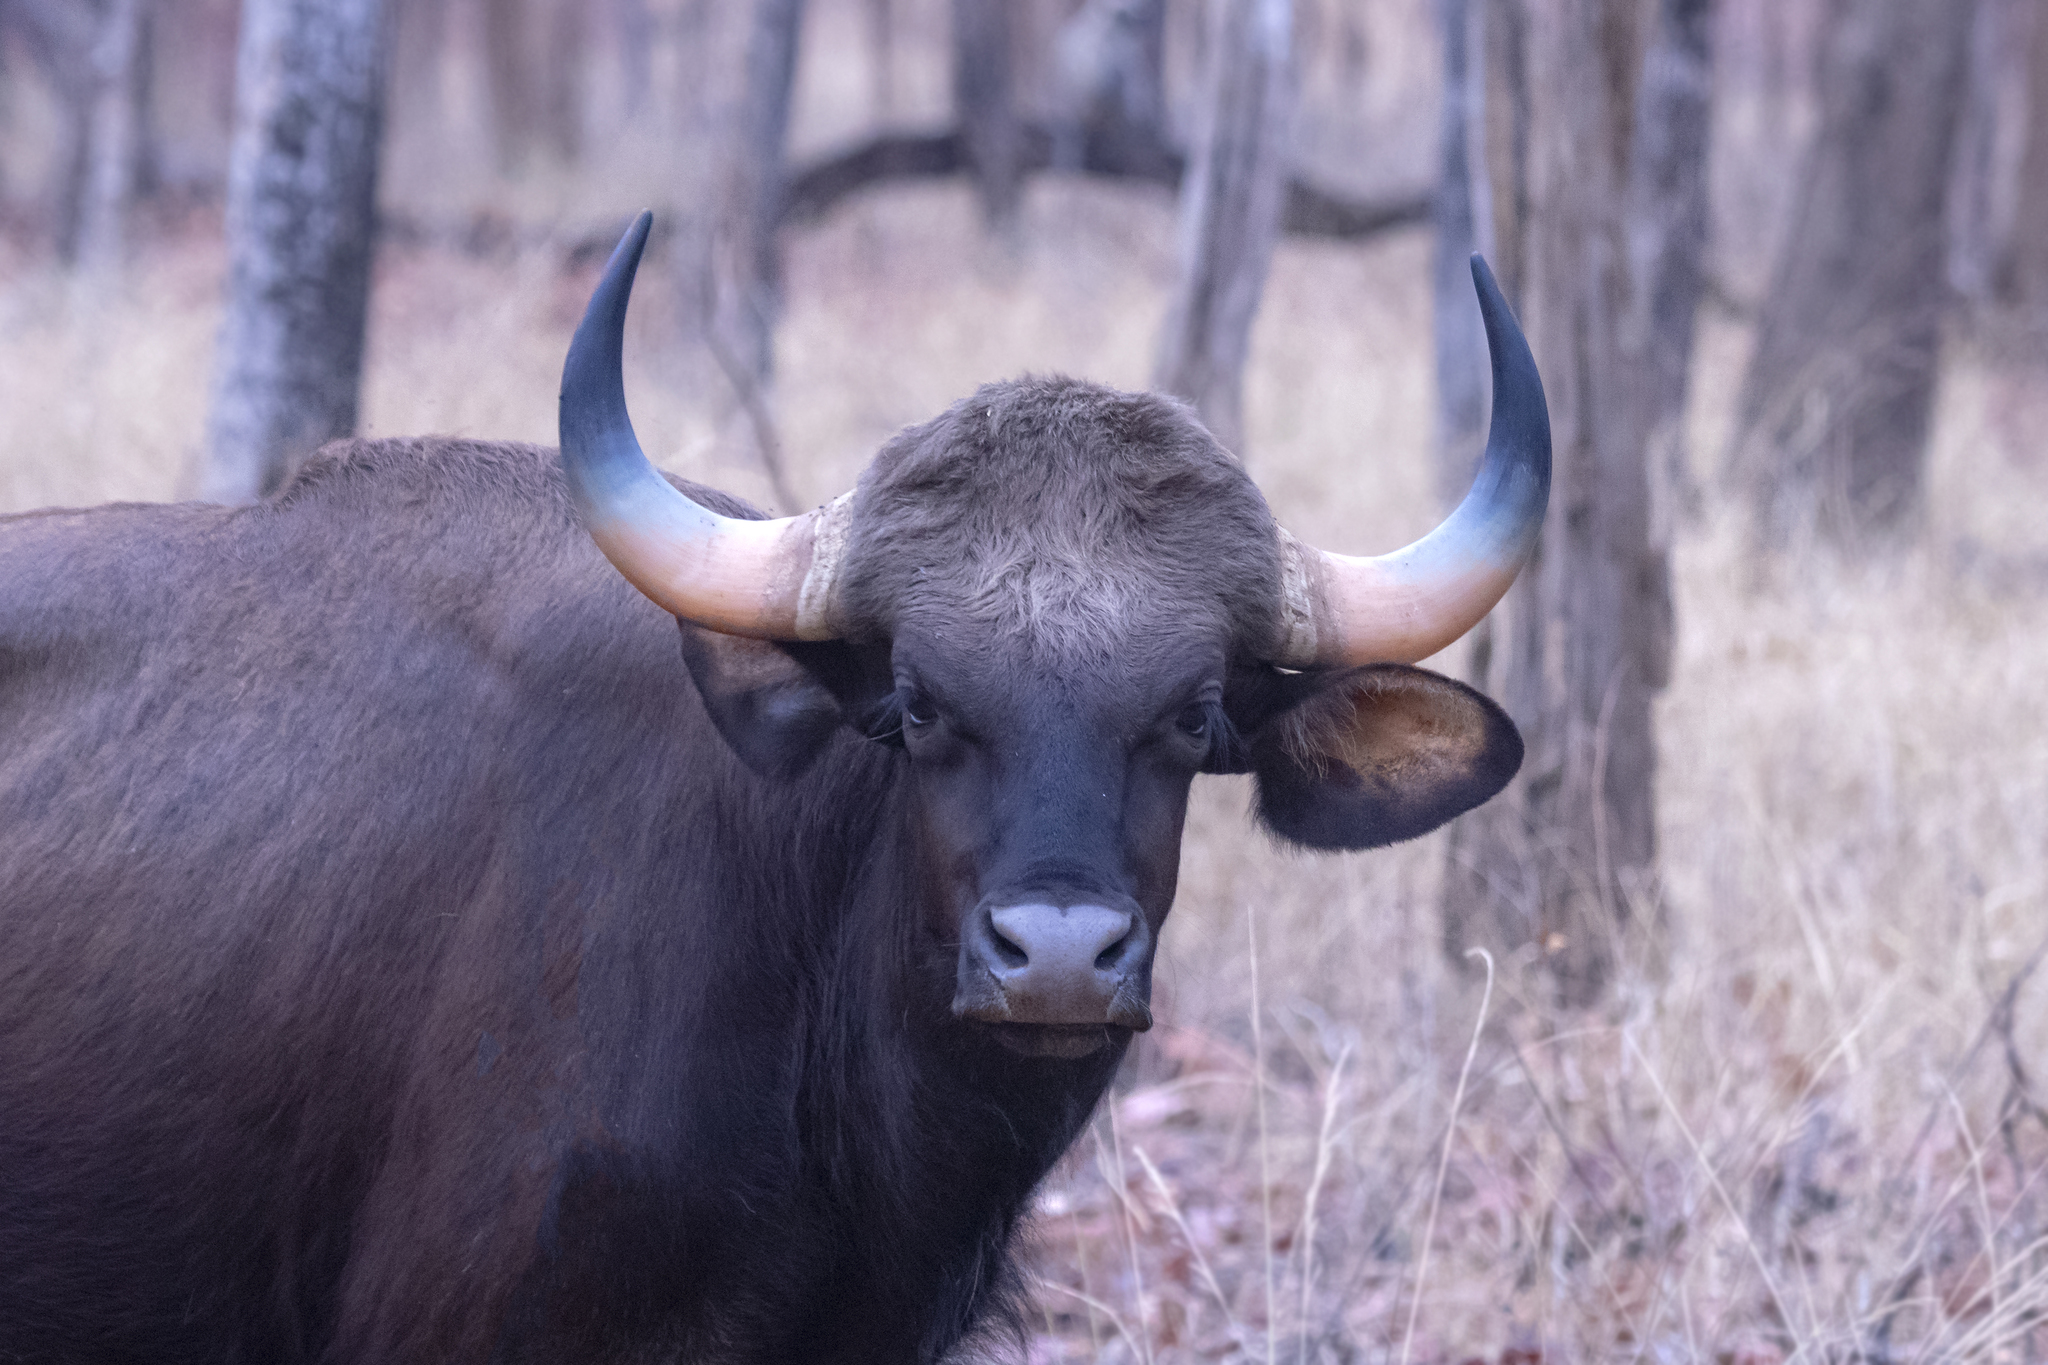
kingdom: Animalia
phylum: Chordata
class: Mammalia
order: Artiodactyla
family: Bovidae
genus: Bos
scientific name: Bos frontalis
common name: Gaur
